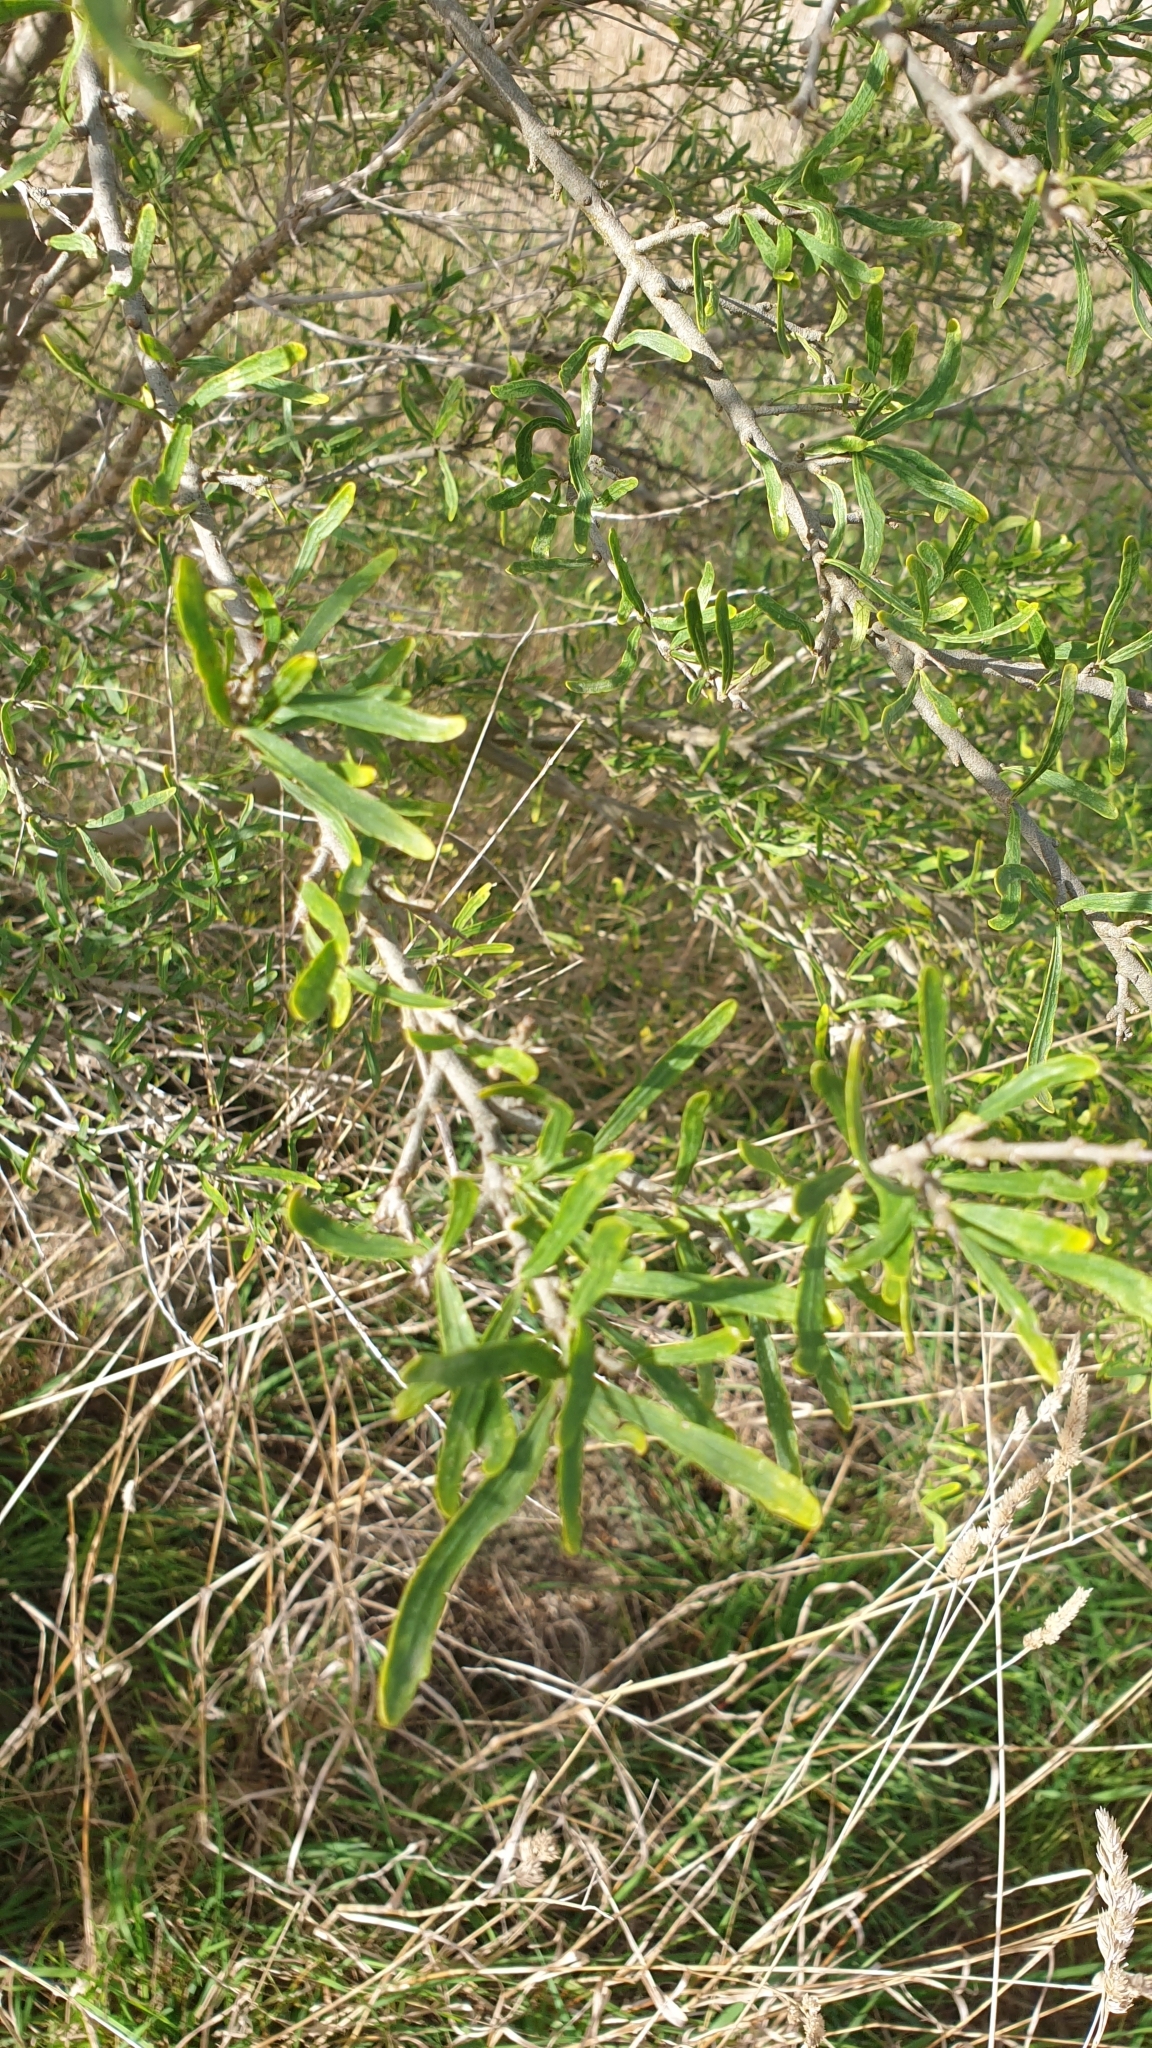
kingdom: Plantae
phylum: Tracheophyta
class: Magnoliopsida
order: Malpighiales
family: Violaceae
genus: Melicytus
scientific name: Melicytus dentatus
